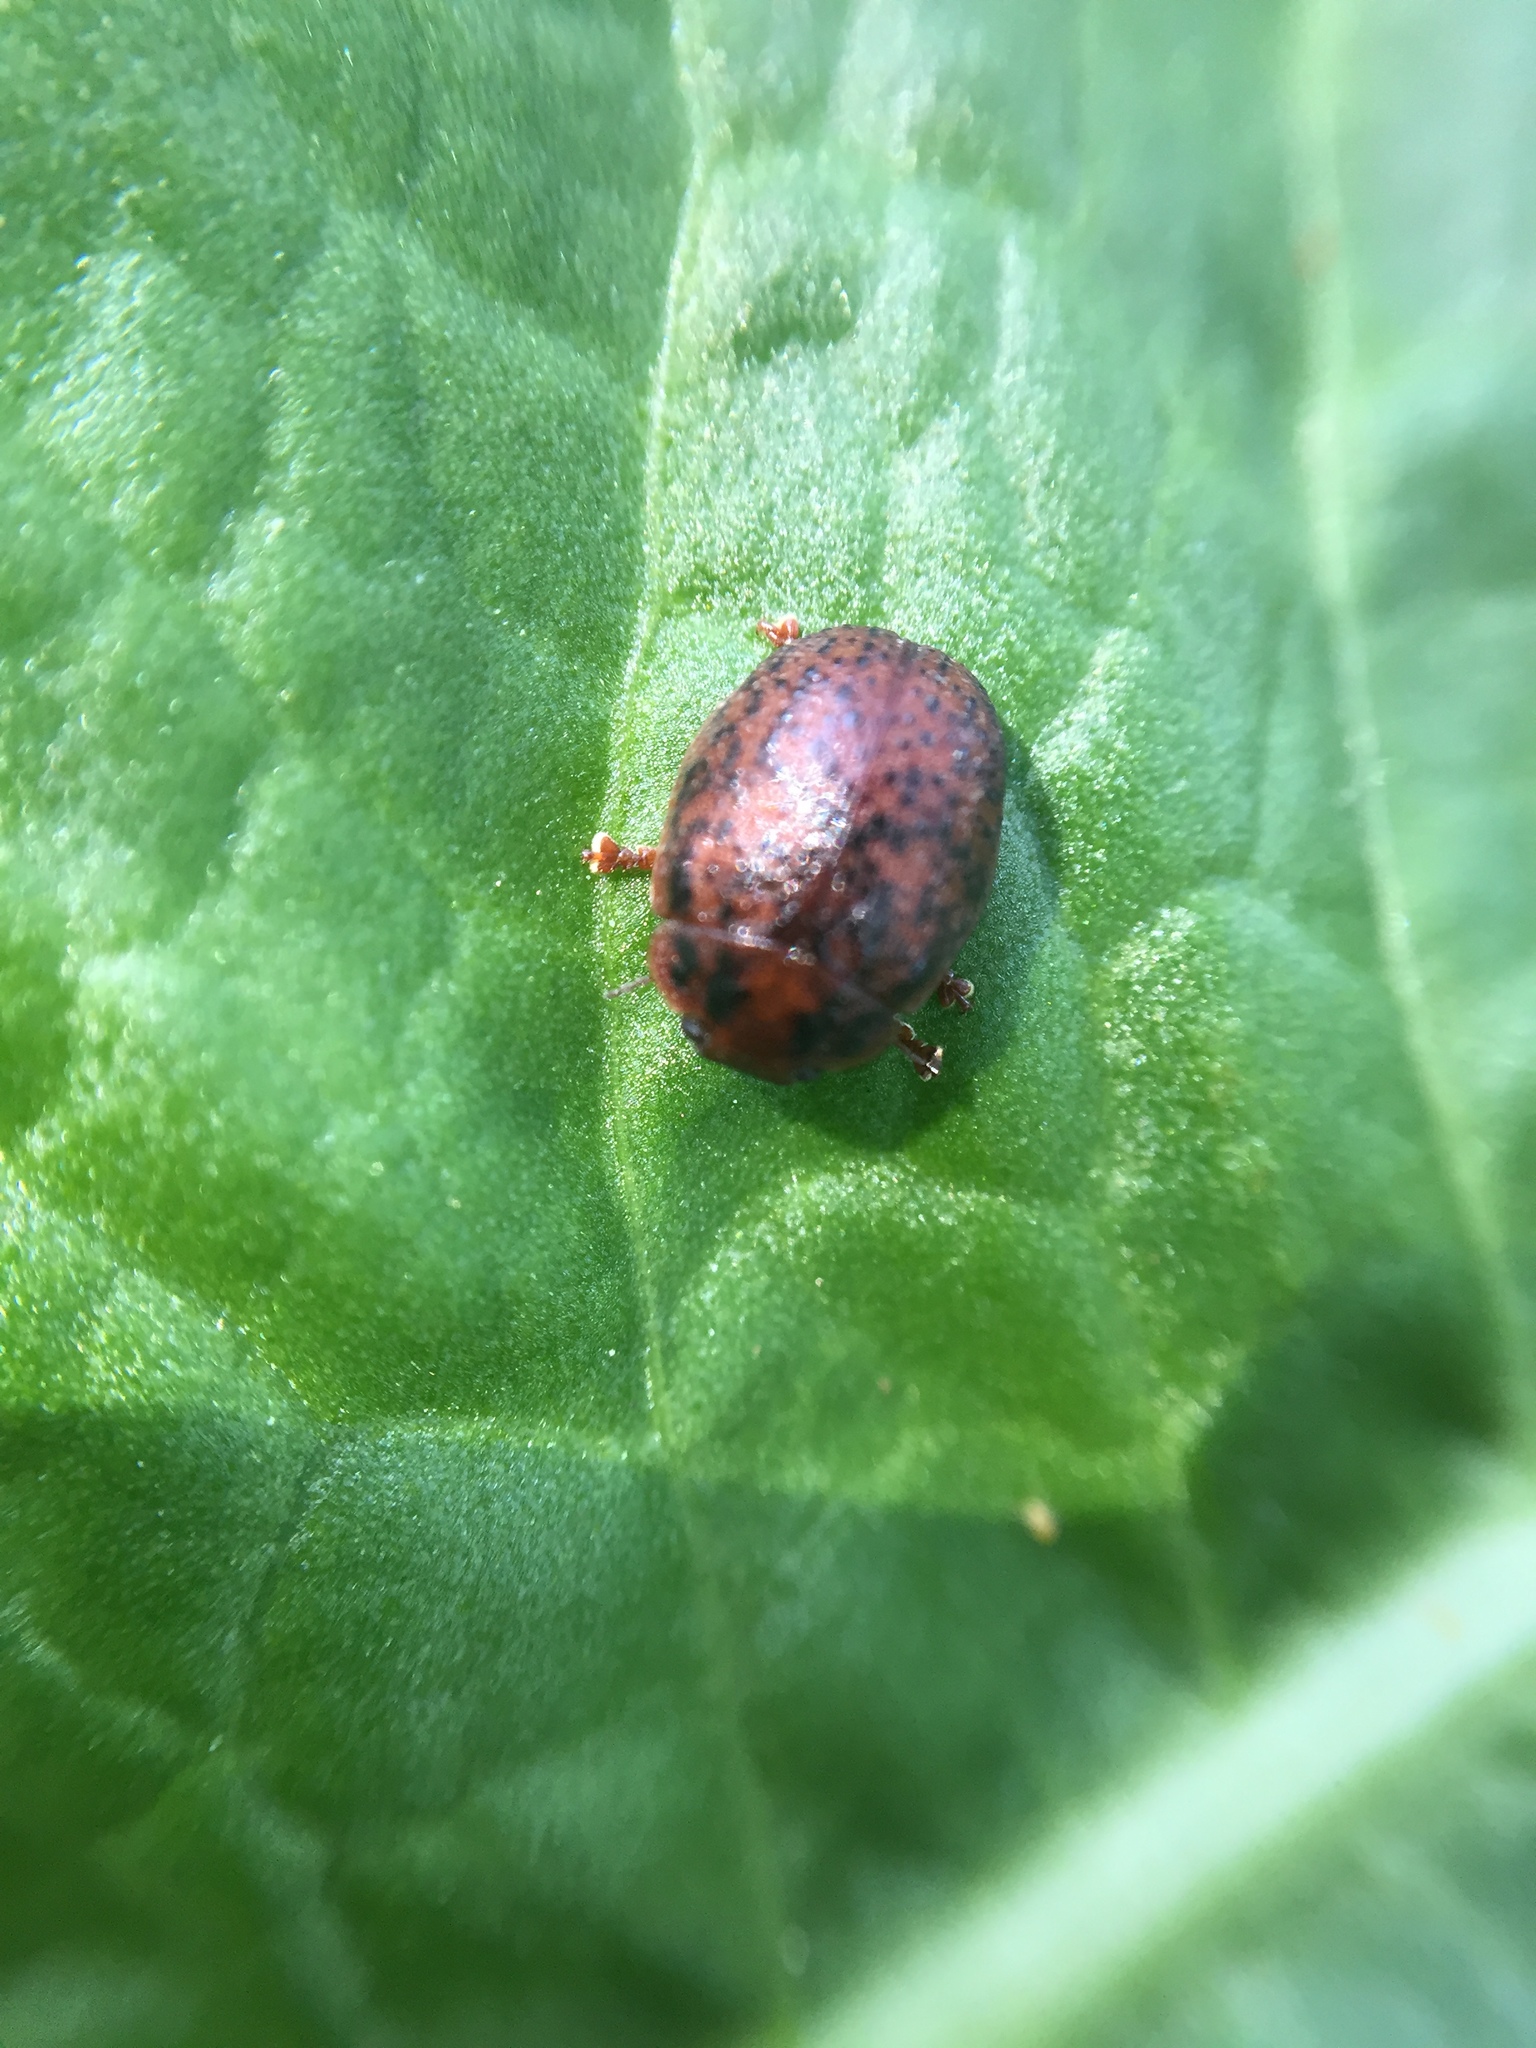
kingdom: Animalia
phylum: Arthropoda
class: Insecta
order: Coleoptera
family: Chrysomelidae
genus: Trachymela
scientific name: Trachymela sloanei
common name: Australian tortoise beetle
